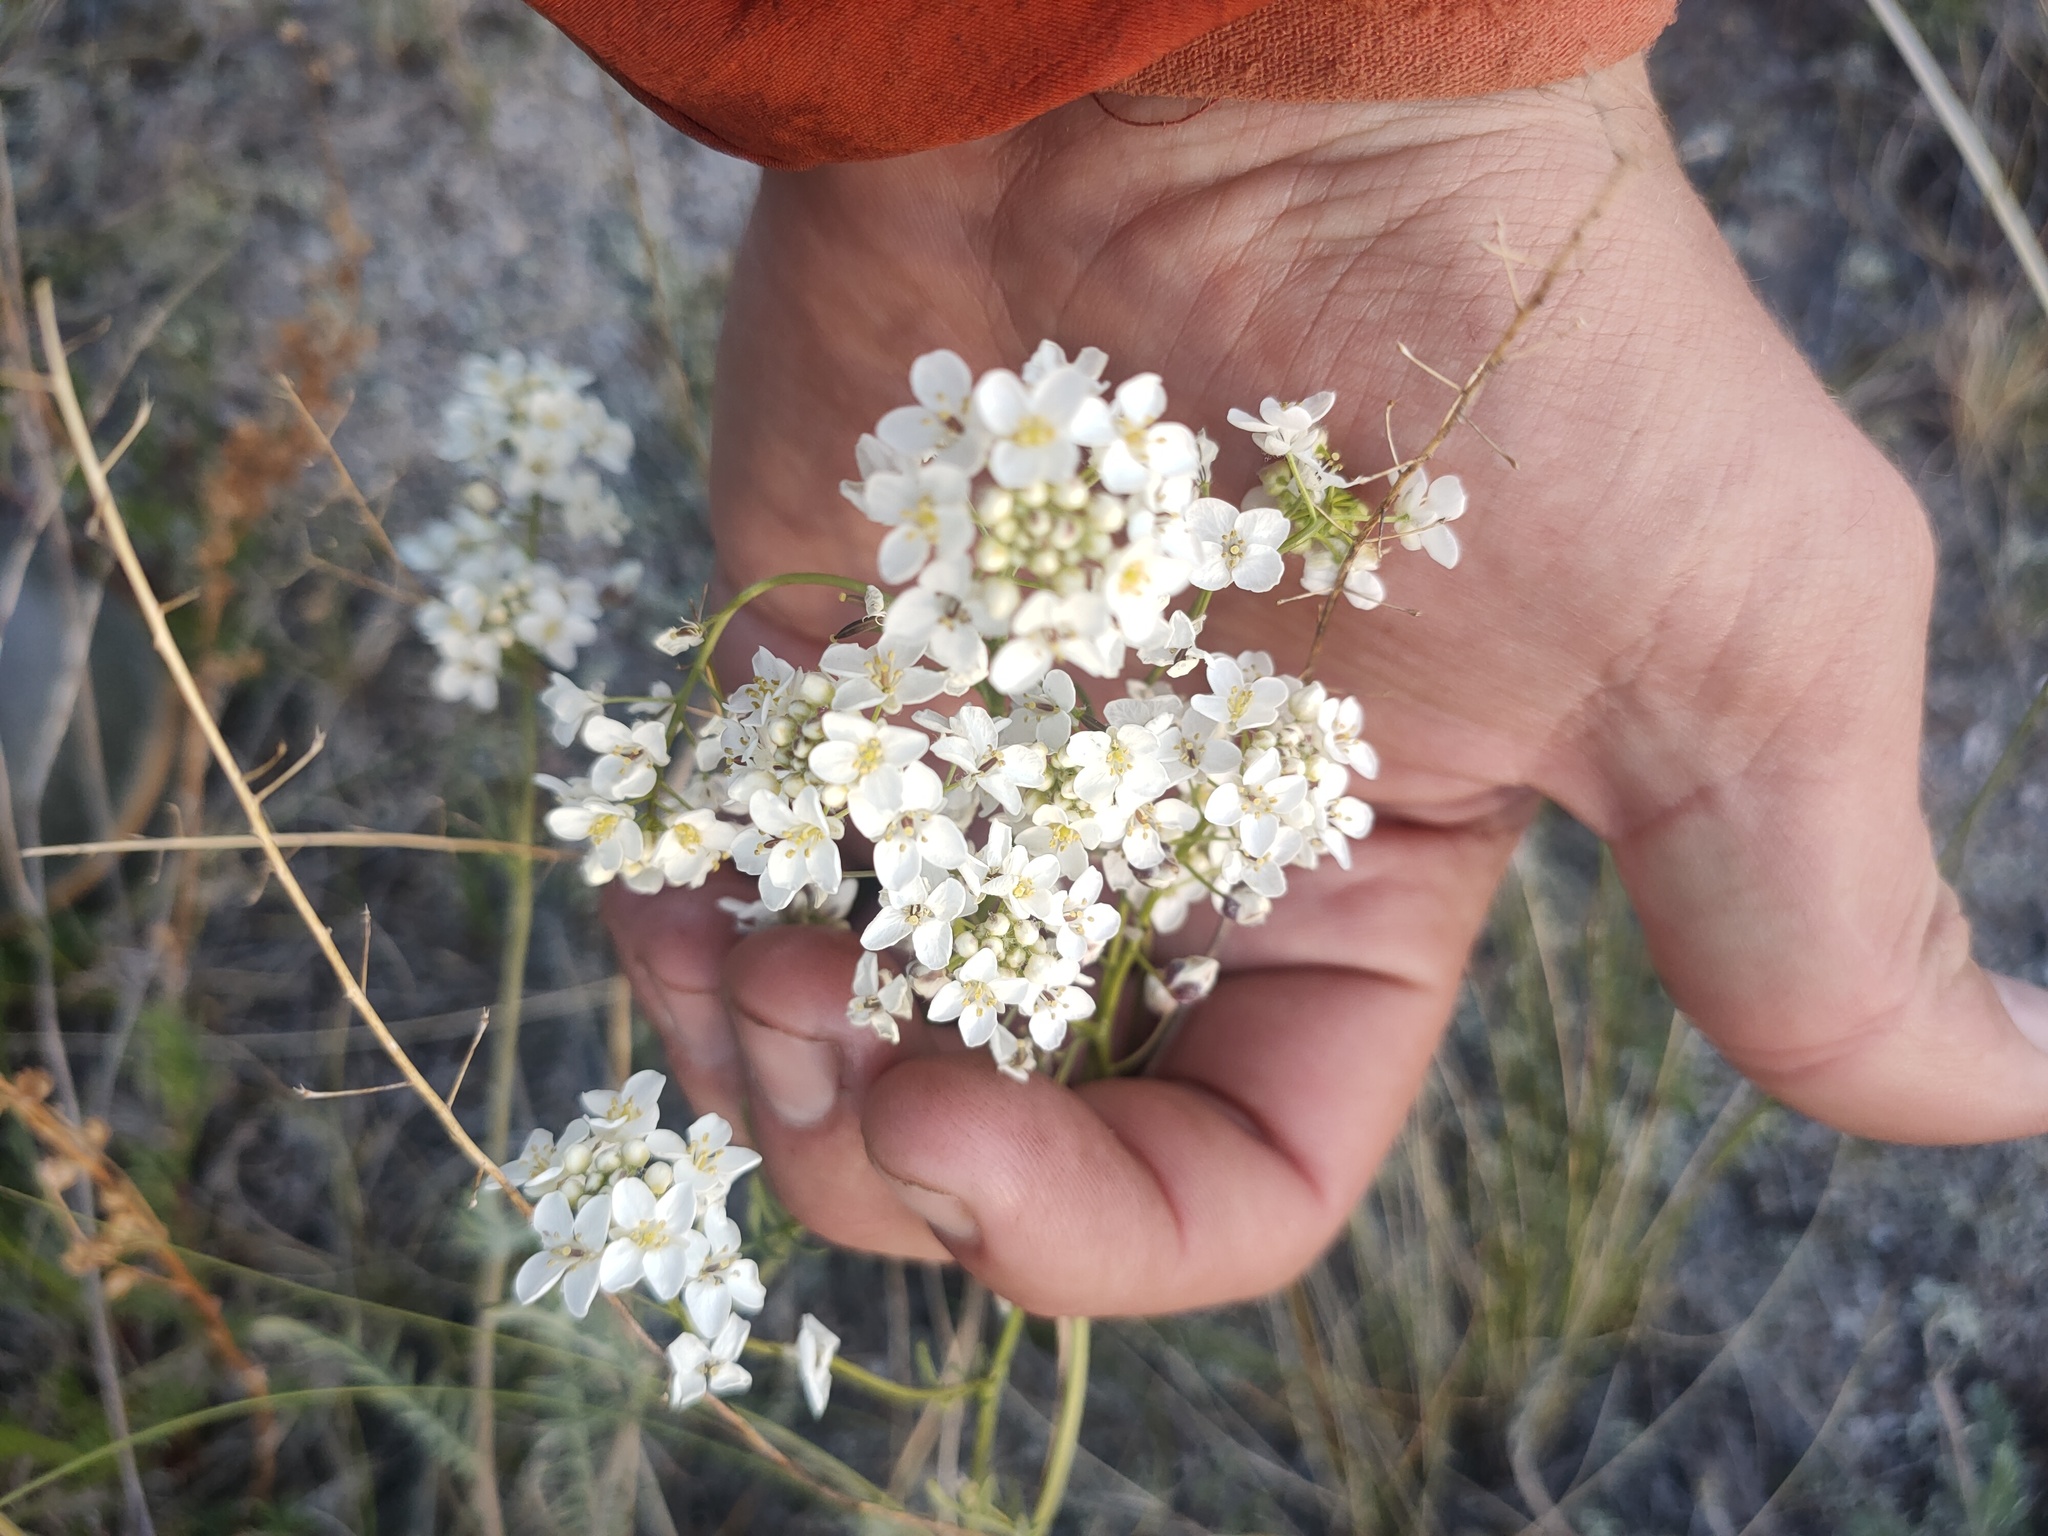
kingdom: Plantae
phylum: Tracheophyta
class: Magnoliopsida
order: Brassicales
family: Brassicaceae
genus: Smelowskia
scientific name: Smelowskia alba
